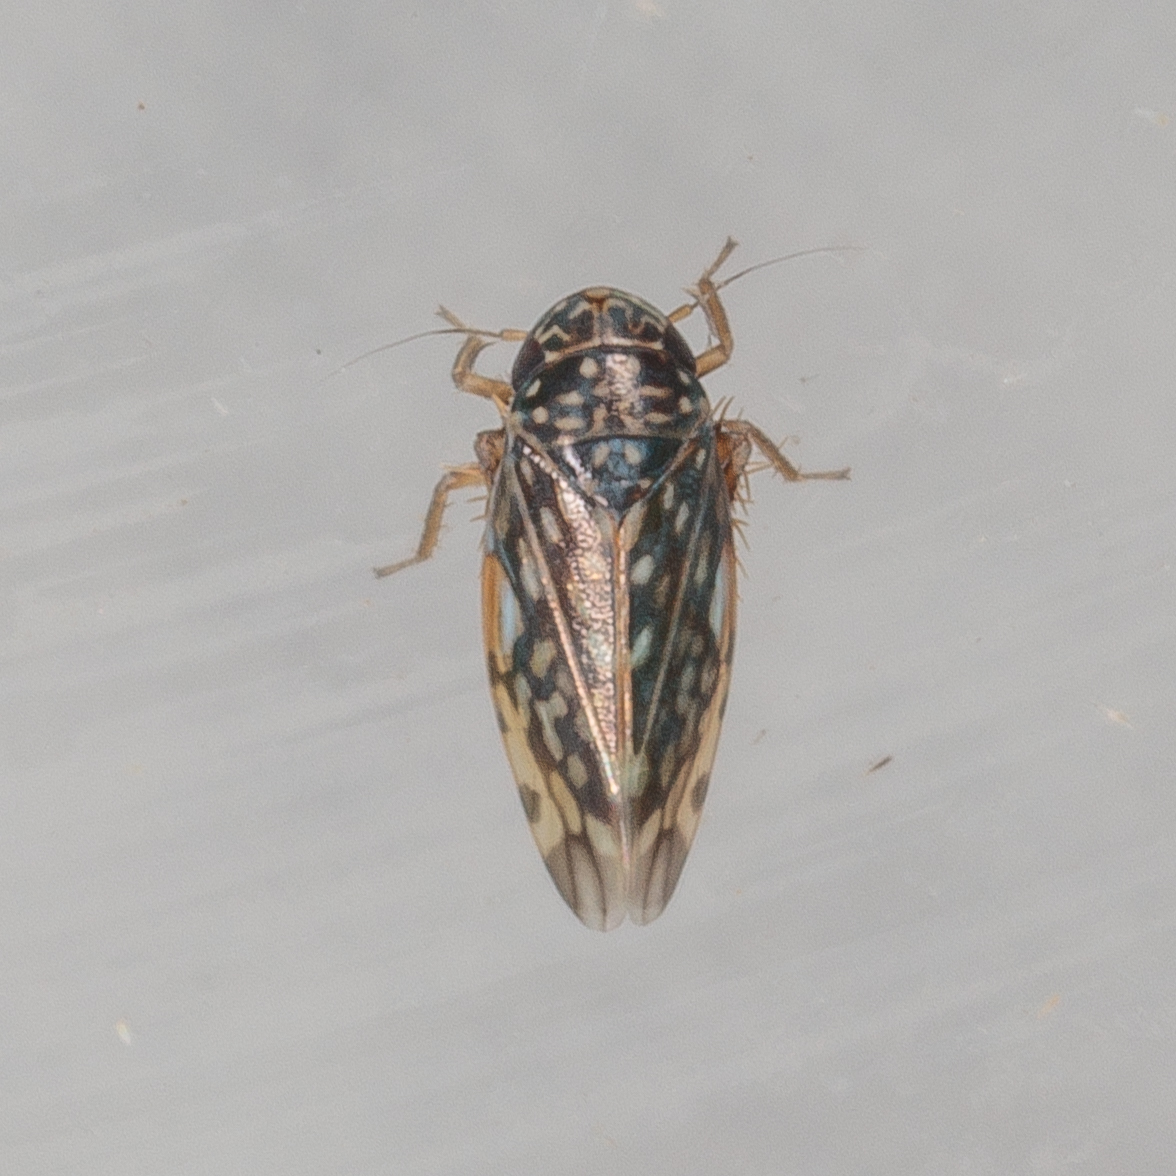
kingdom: Animalia
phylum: Arthropoda
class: Insecta
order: Hemiptera
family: Cicadellidae
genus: Xestocephalus
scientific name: Xestocephalus lunatus
